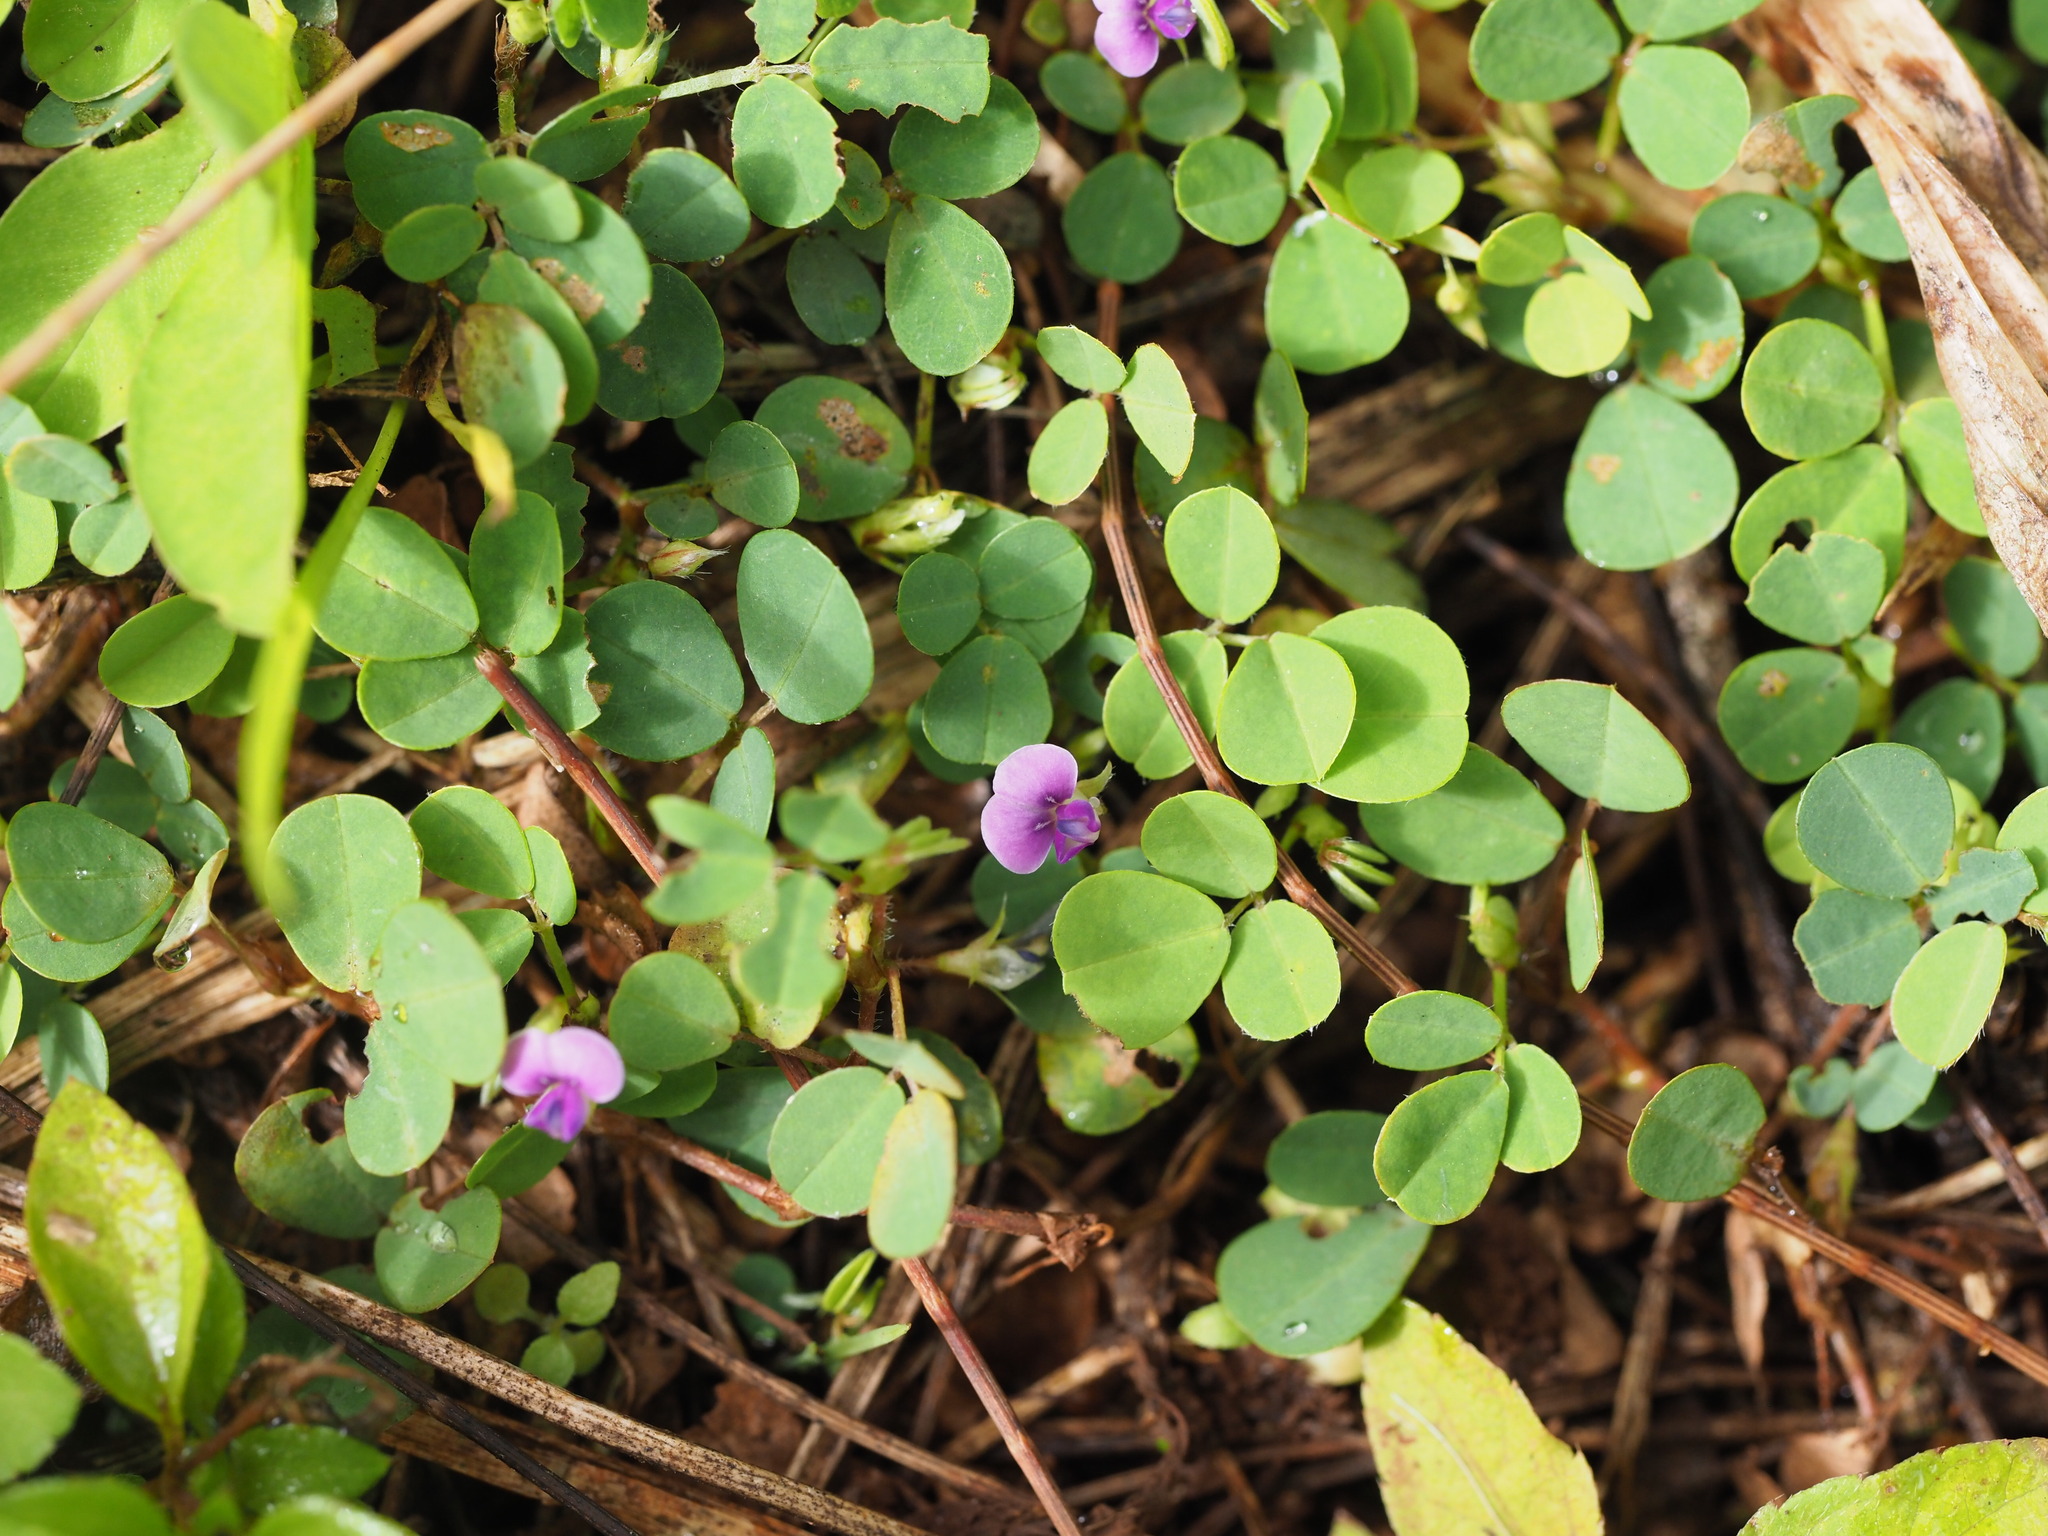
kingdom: Plantae
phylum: Tracheophyta
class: Magnoliopsida
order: Fabales
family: Fabaceae
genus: Grona
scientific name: Grona triflora
